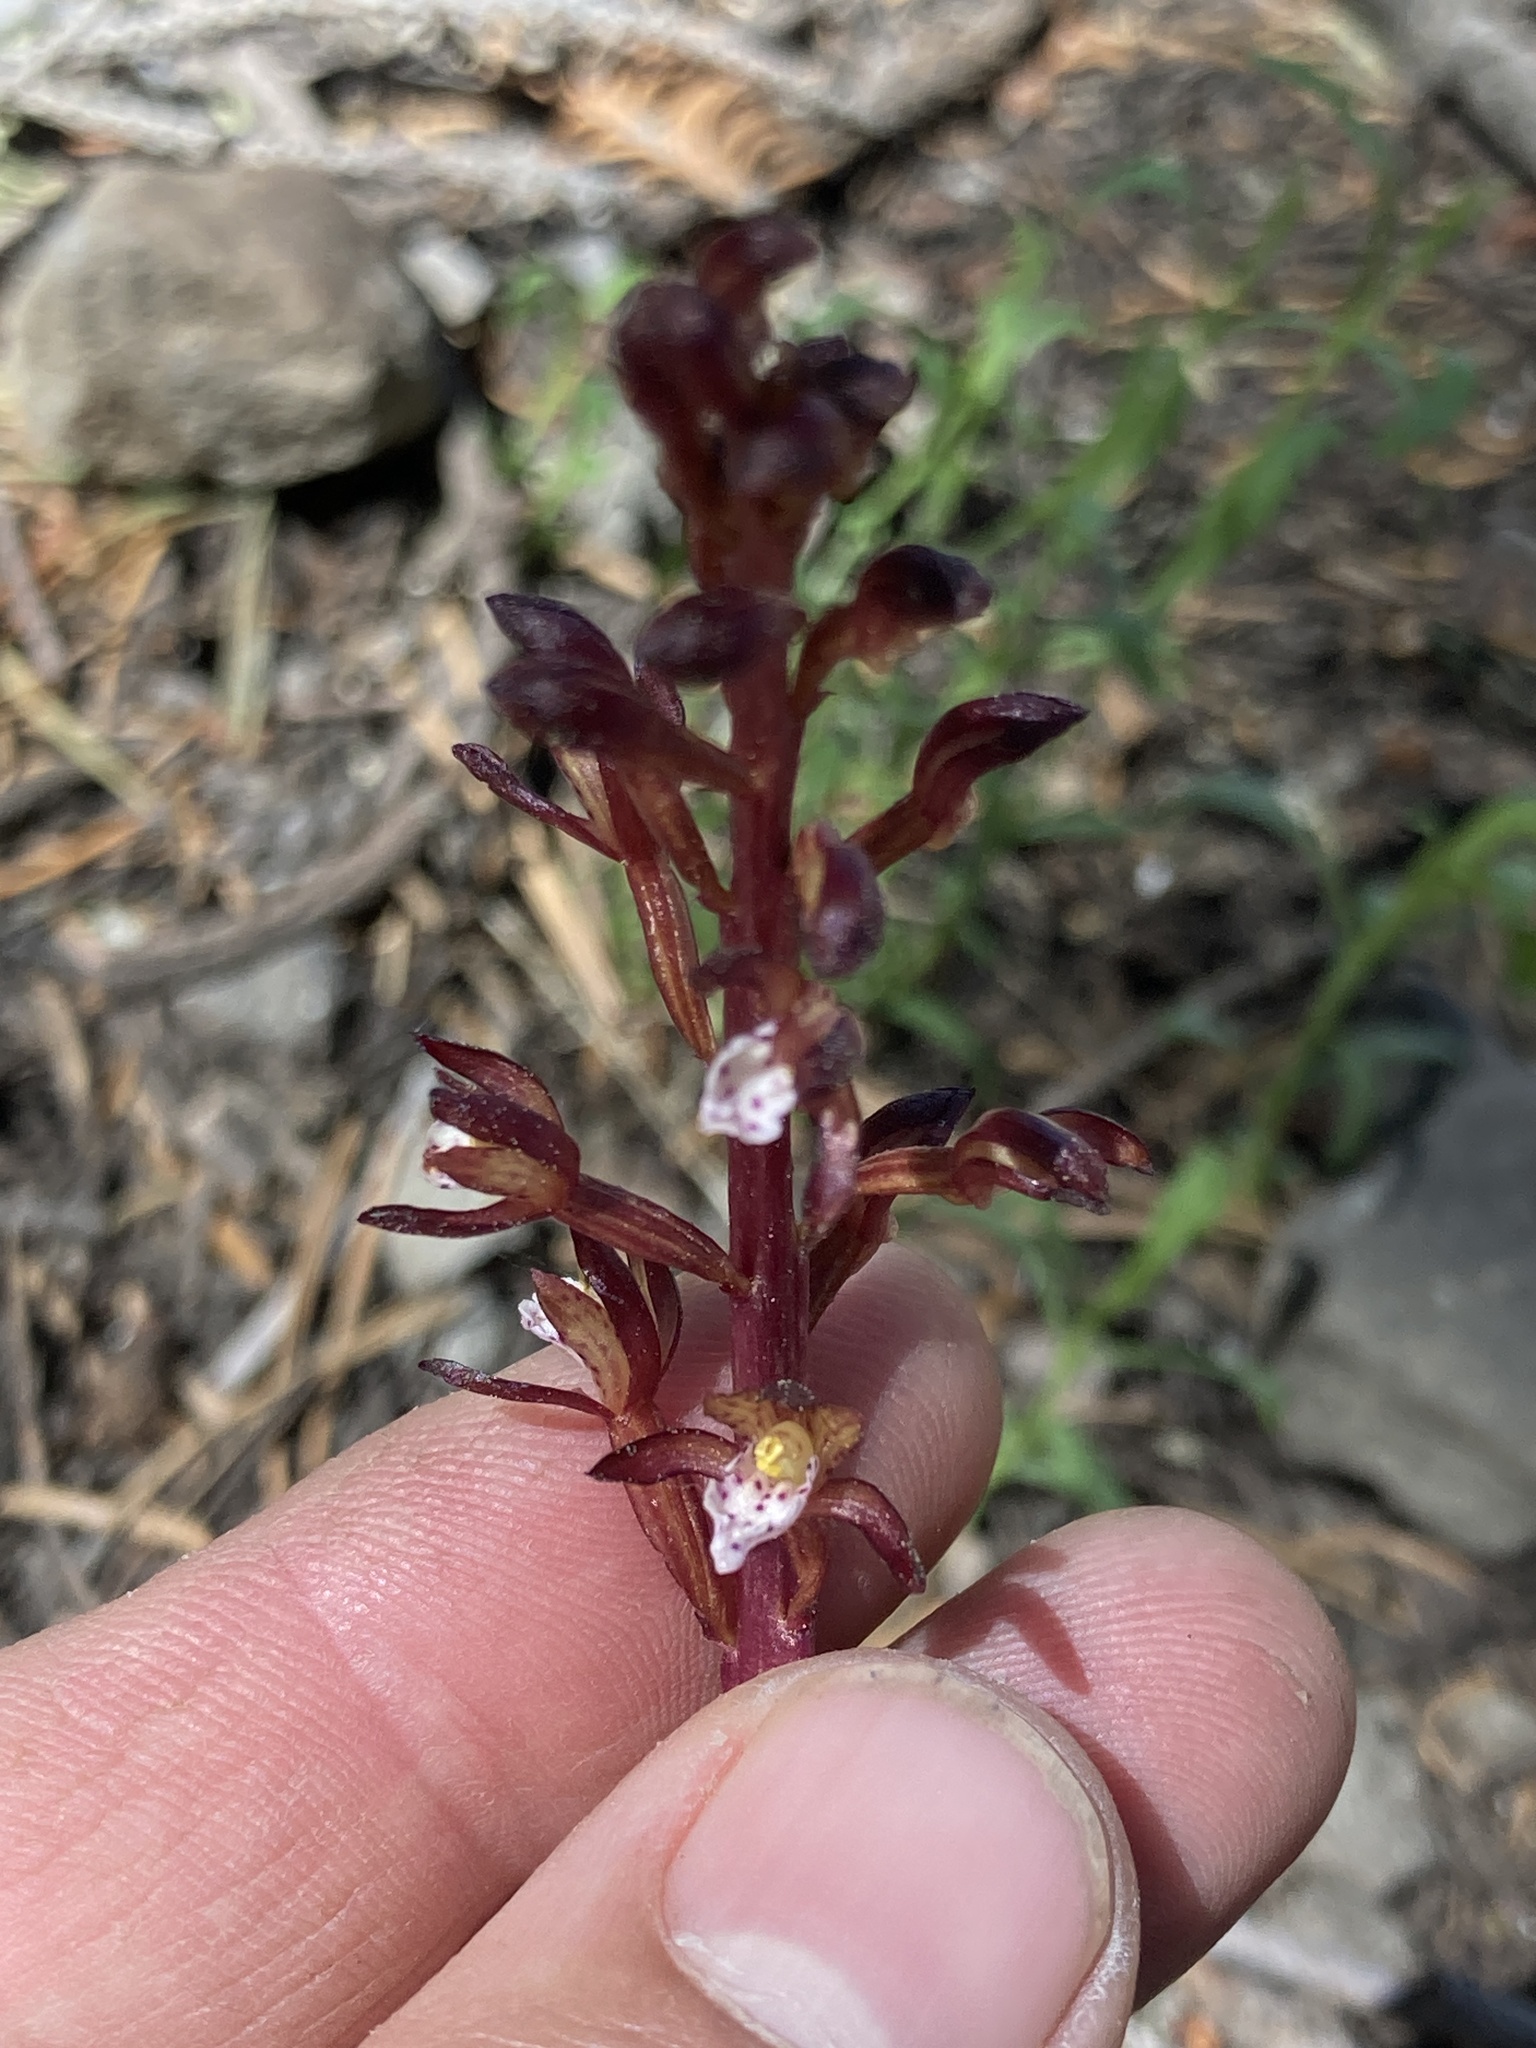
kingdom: Plantae
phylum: Tracheophyta
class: Liliopsida
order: Asparagales
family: Orchidaceae
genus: Corallorhiza
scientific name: Corallorhiza maculata
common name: Spotted coralroot
